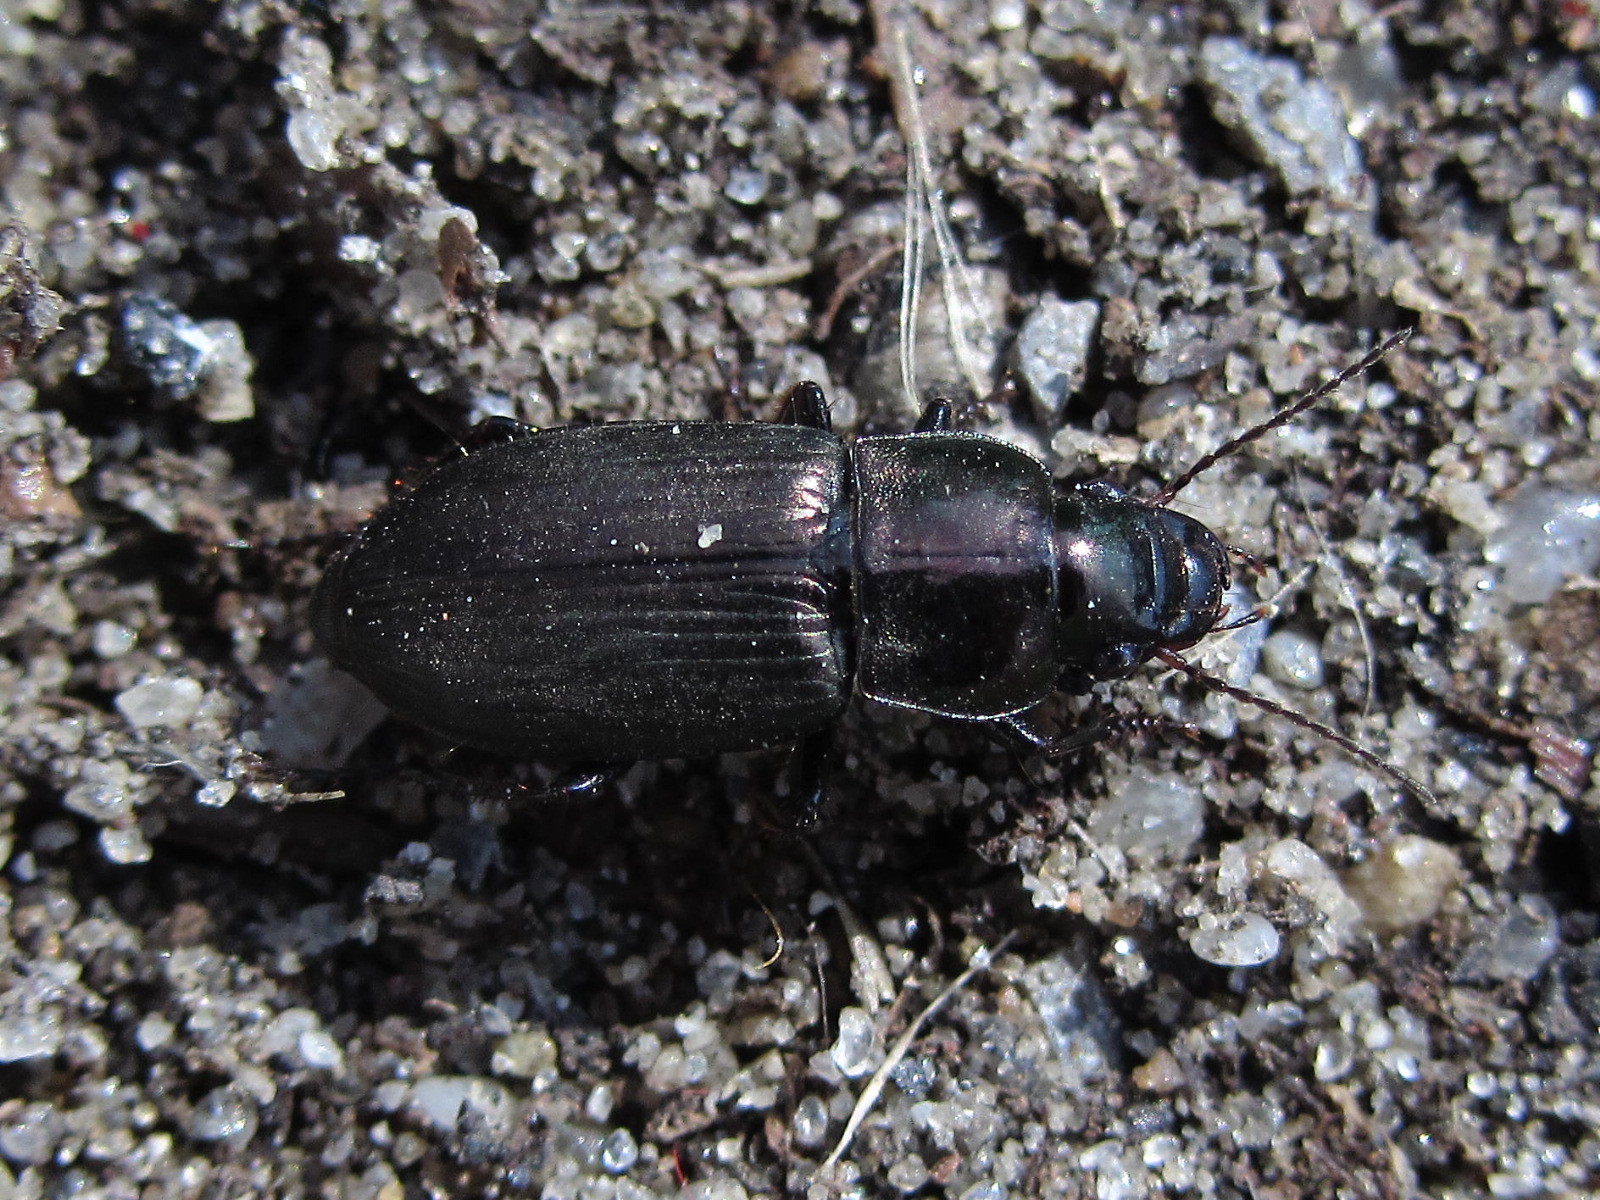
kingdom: Animalia
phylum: Arthropoda
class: Insecta
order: Coleoptera
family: Carabidae
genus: Harpalus
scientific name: Harpalus distinguendus
